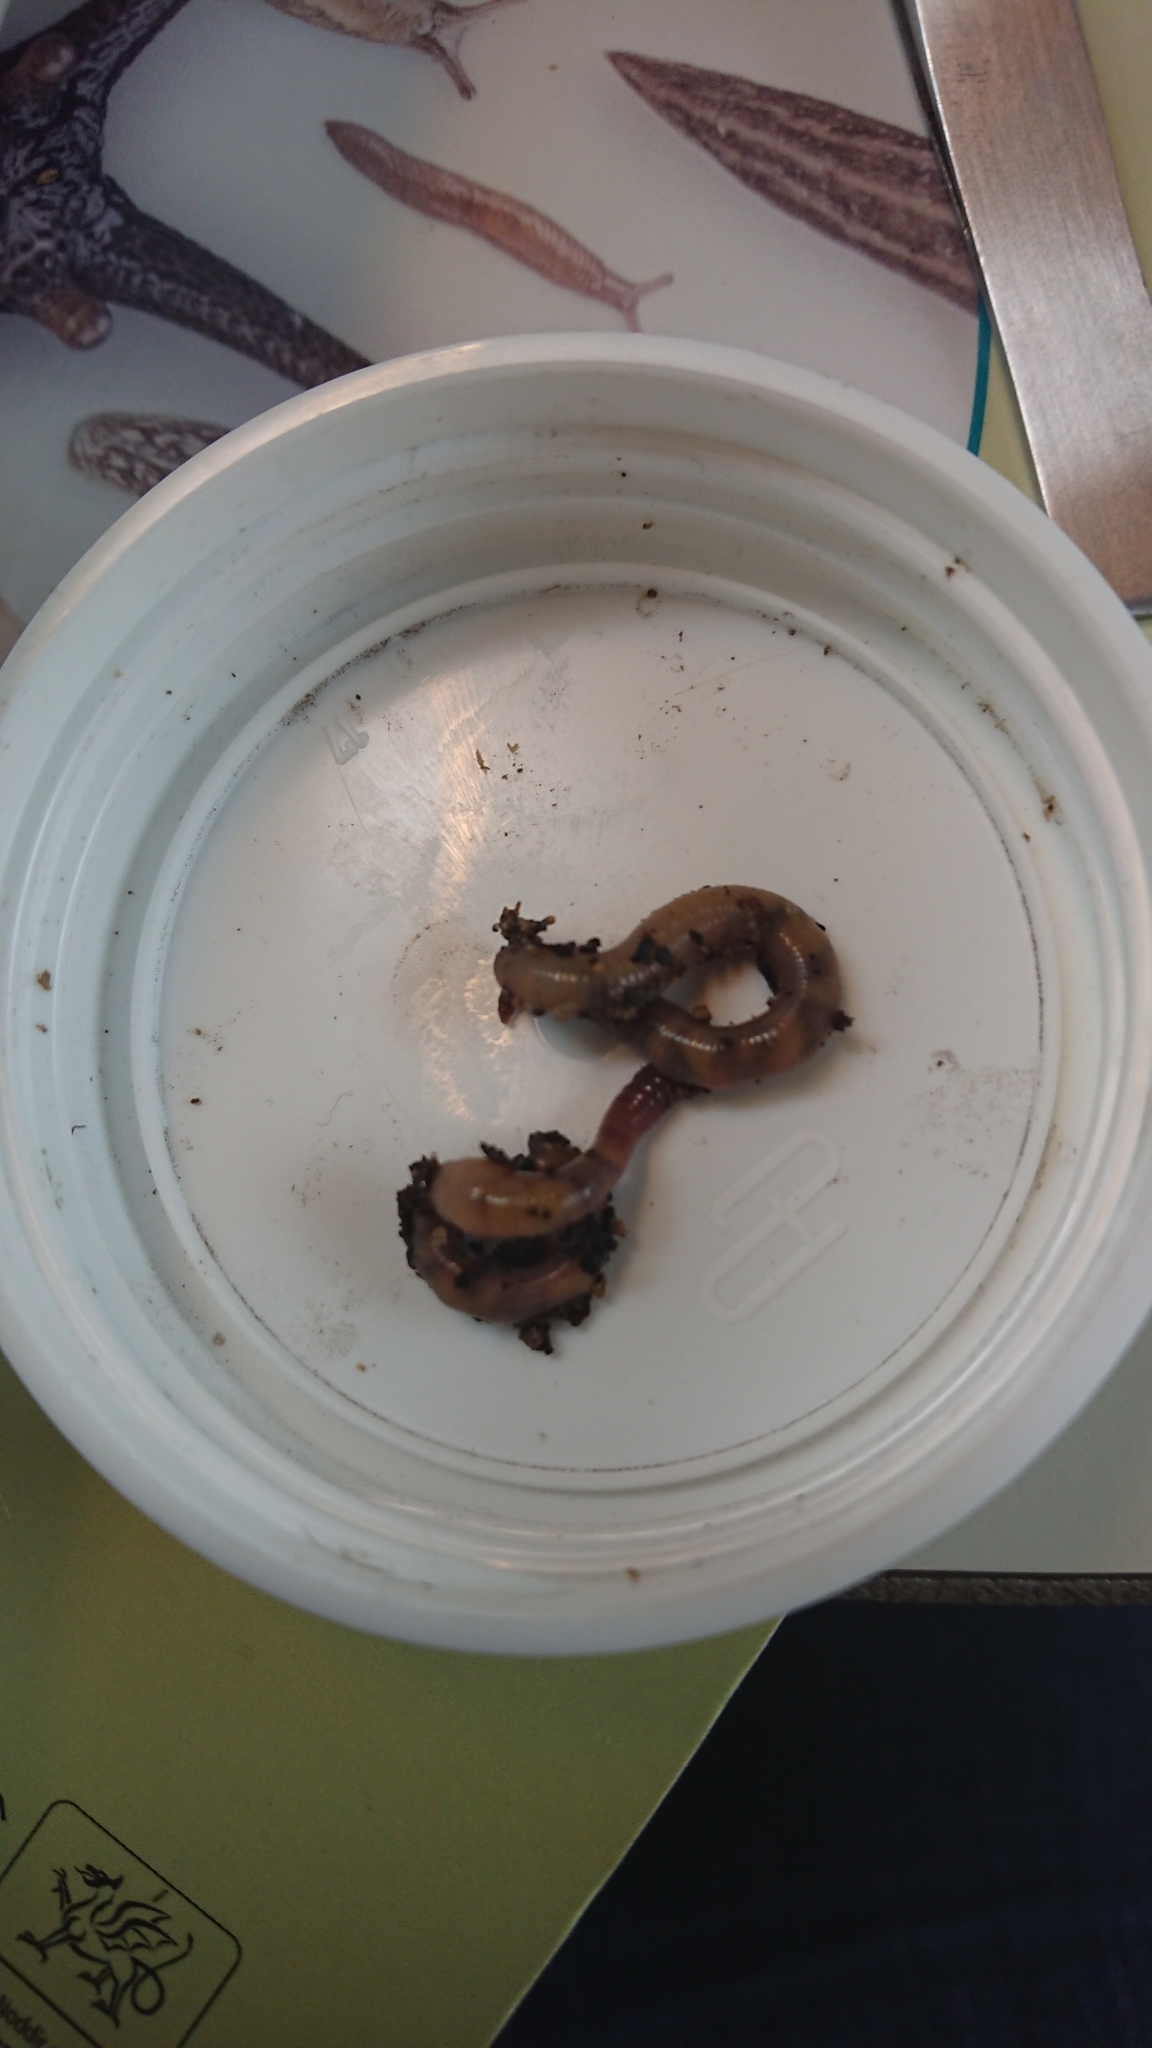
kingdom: Animalia
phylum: Annelida
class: Clitellata
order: Crassiclitellata
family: Lumbricidae
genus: Allolobophora
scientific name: Allolobophora chlorotica
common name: Green worm
